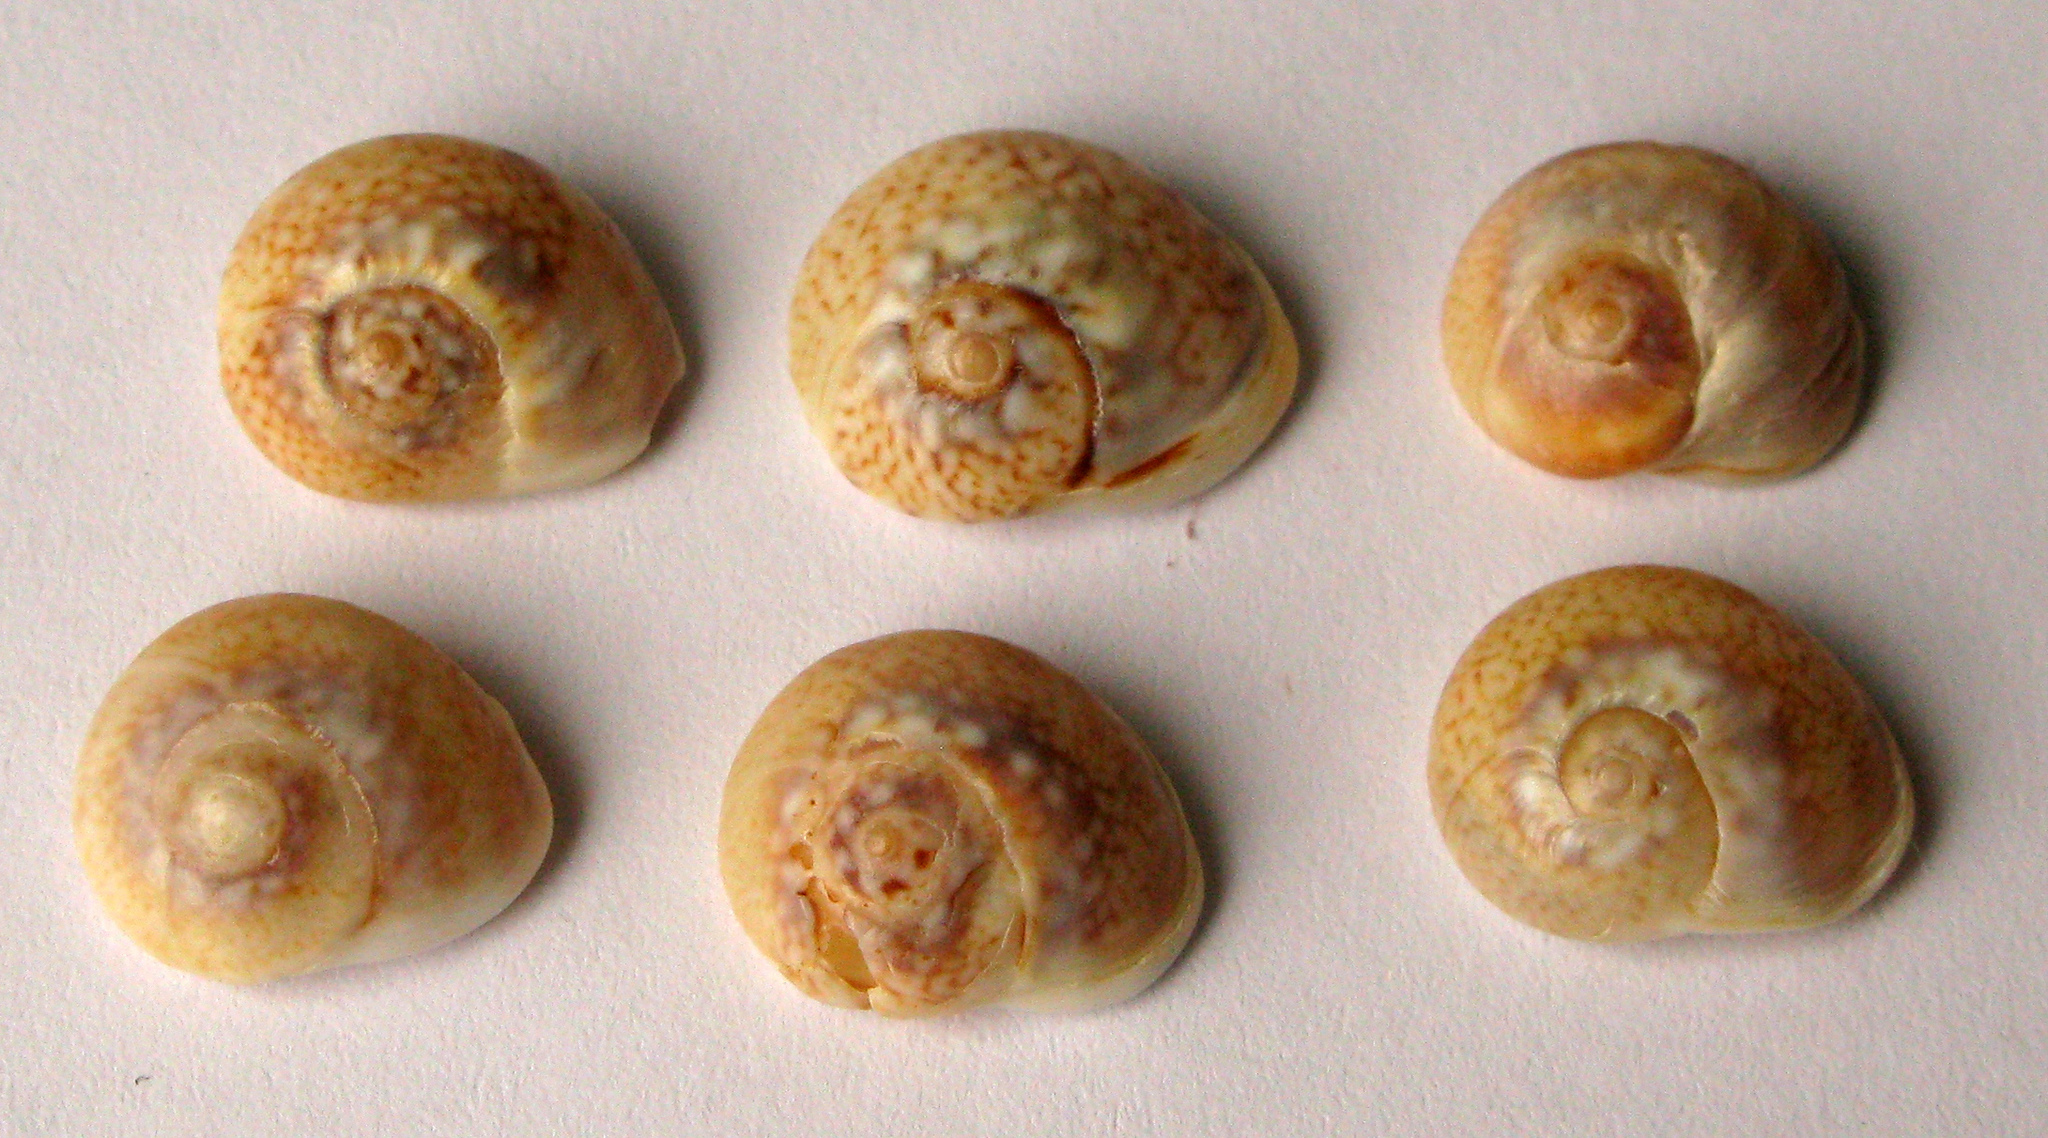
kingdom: Animalia
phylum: Mollusca
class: Gastropoda
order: Neogastropoda
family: Nassariidae
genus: Tritia
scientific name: Tritia pellucida
